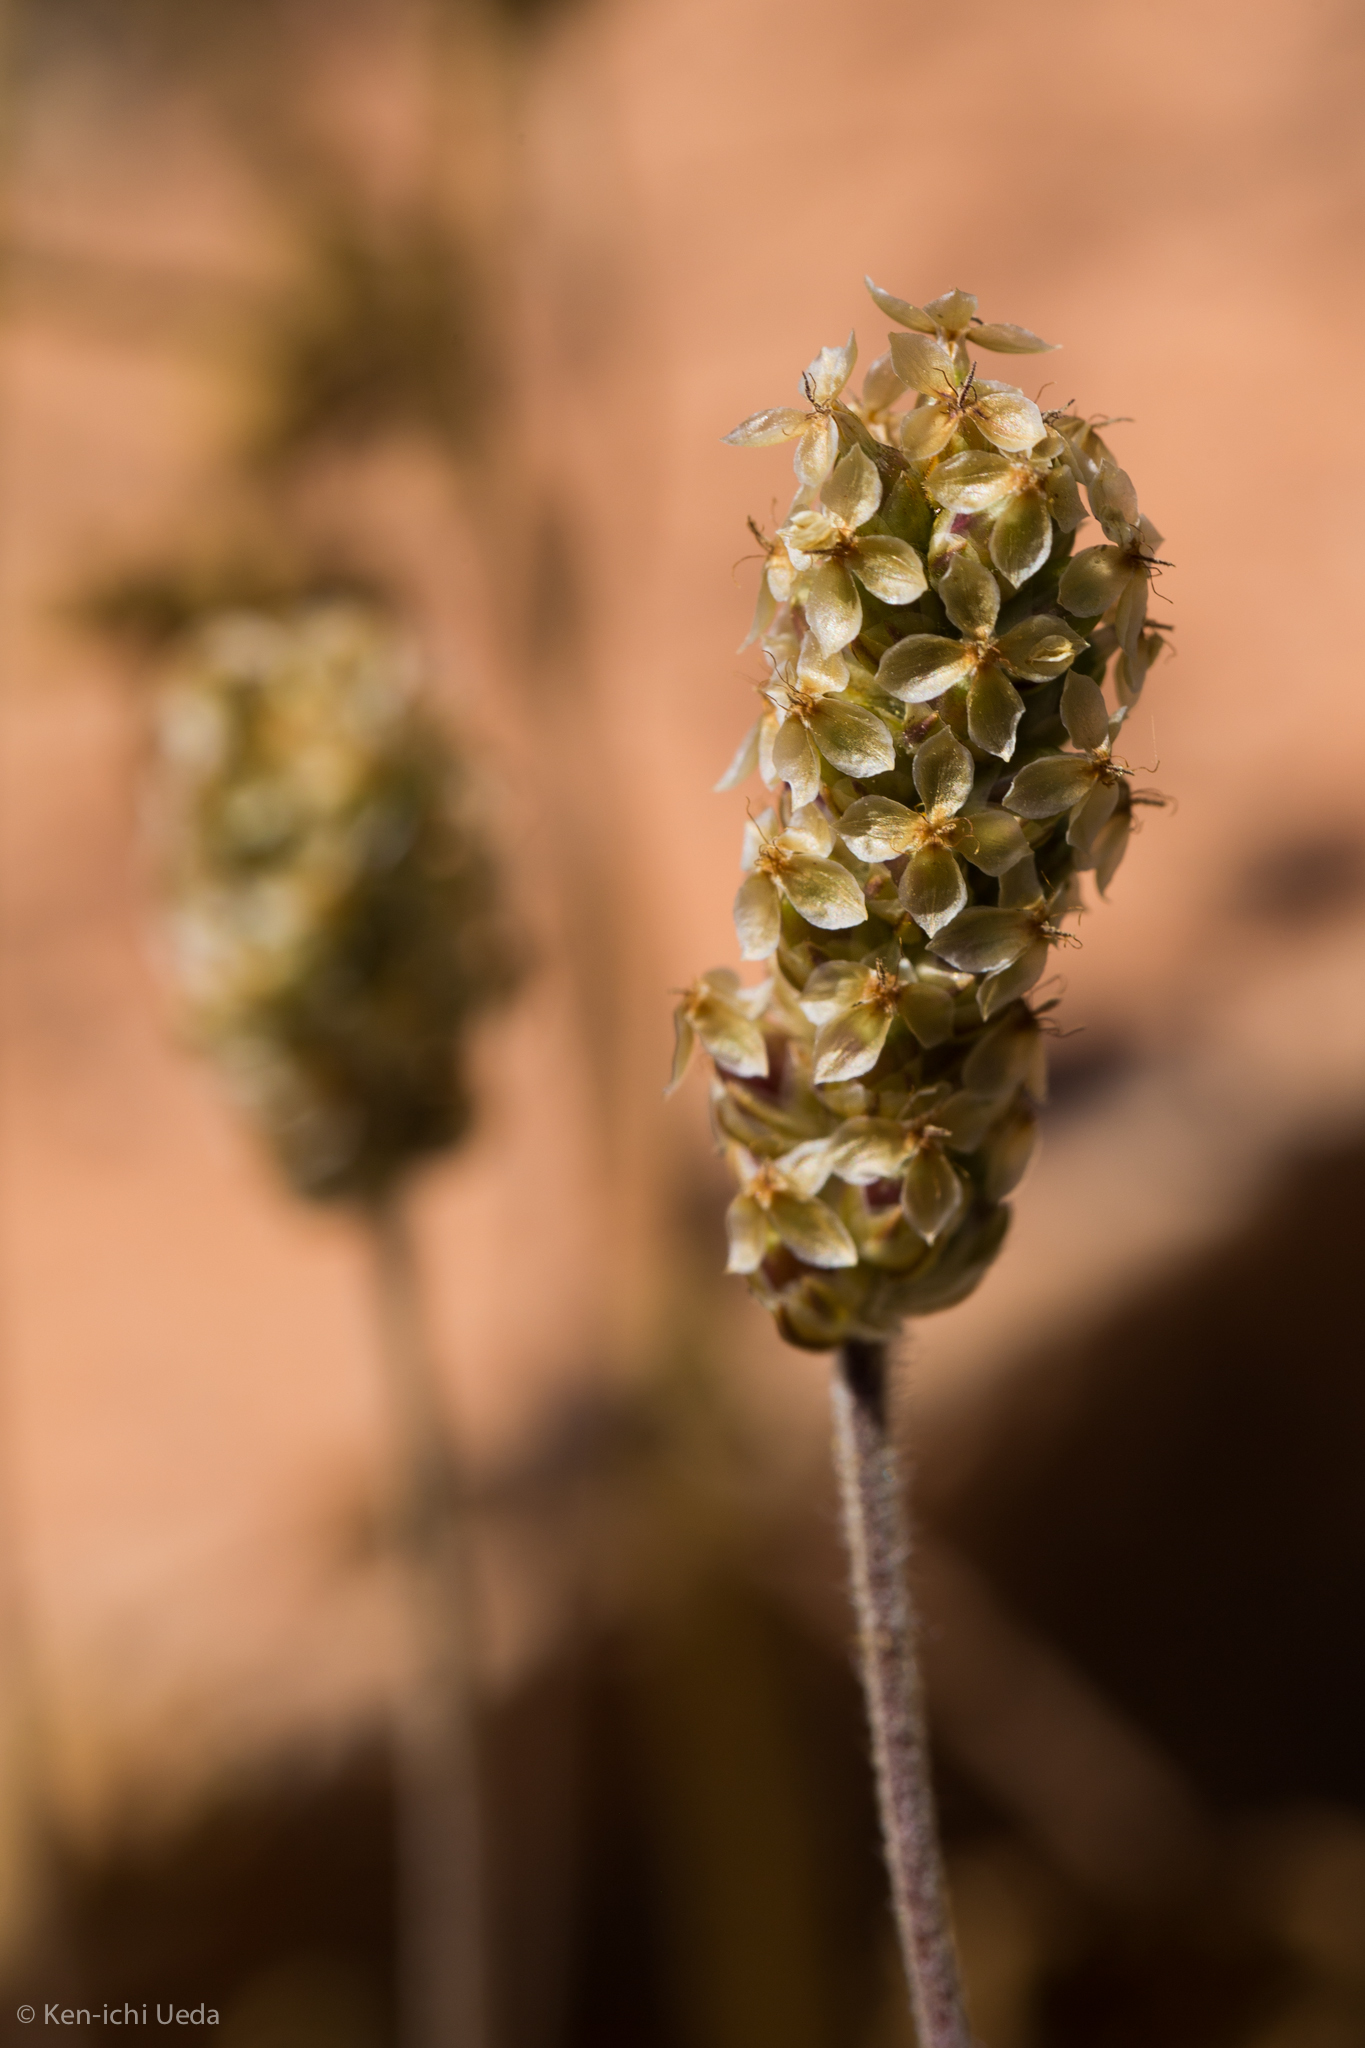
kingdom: Plantae
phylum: Tracheophyta
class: Magnoliopsida
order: Lamiales
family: Plantaginaceae
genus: Plantago
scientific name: Plantago ovata
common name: Blond plantain
